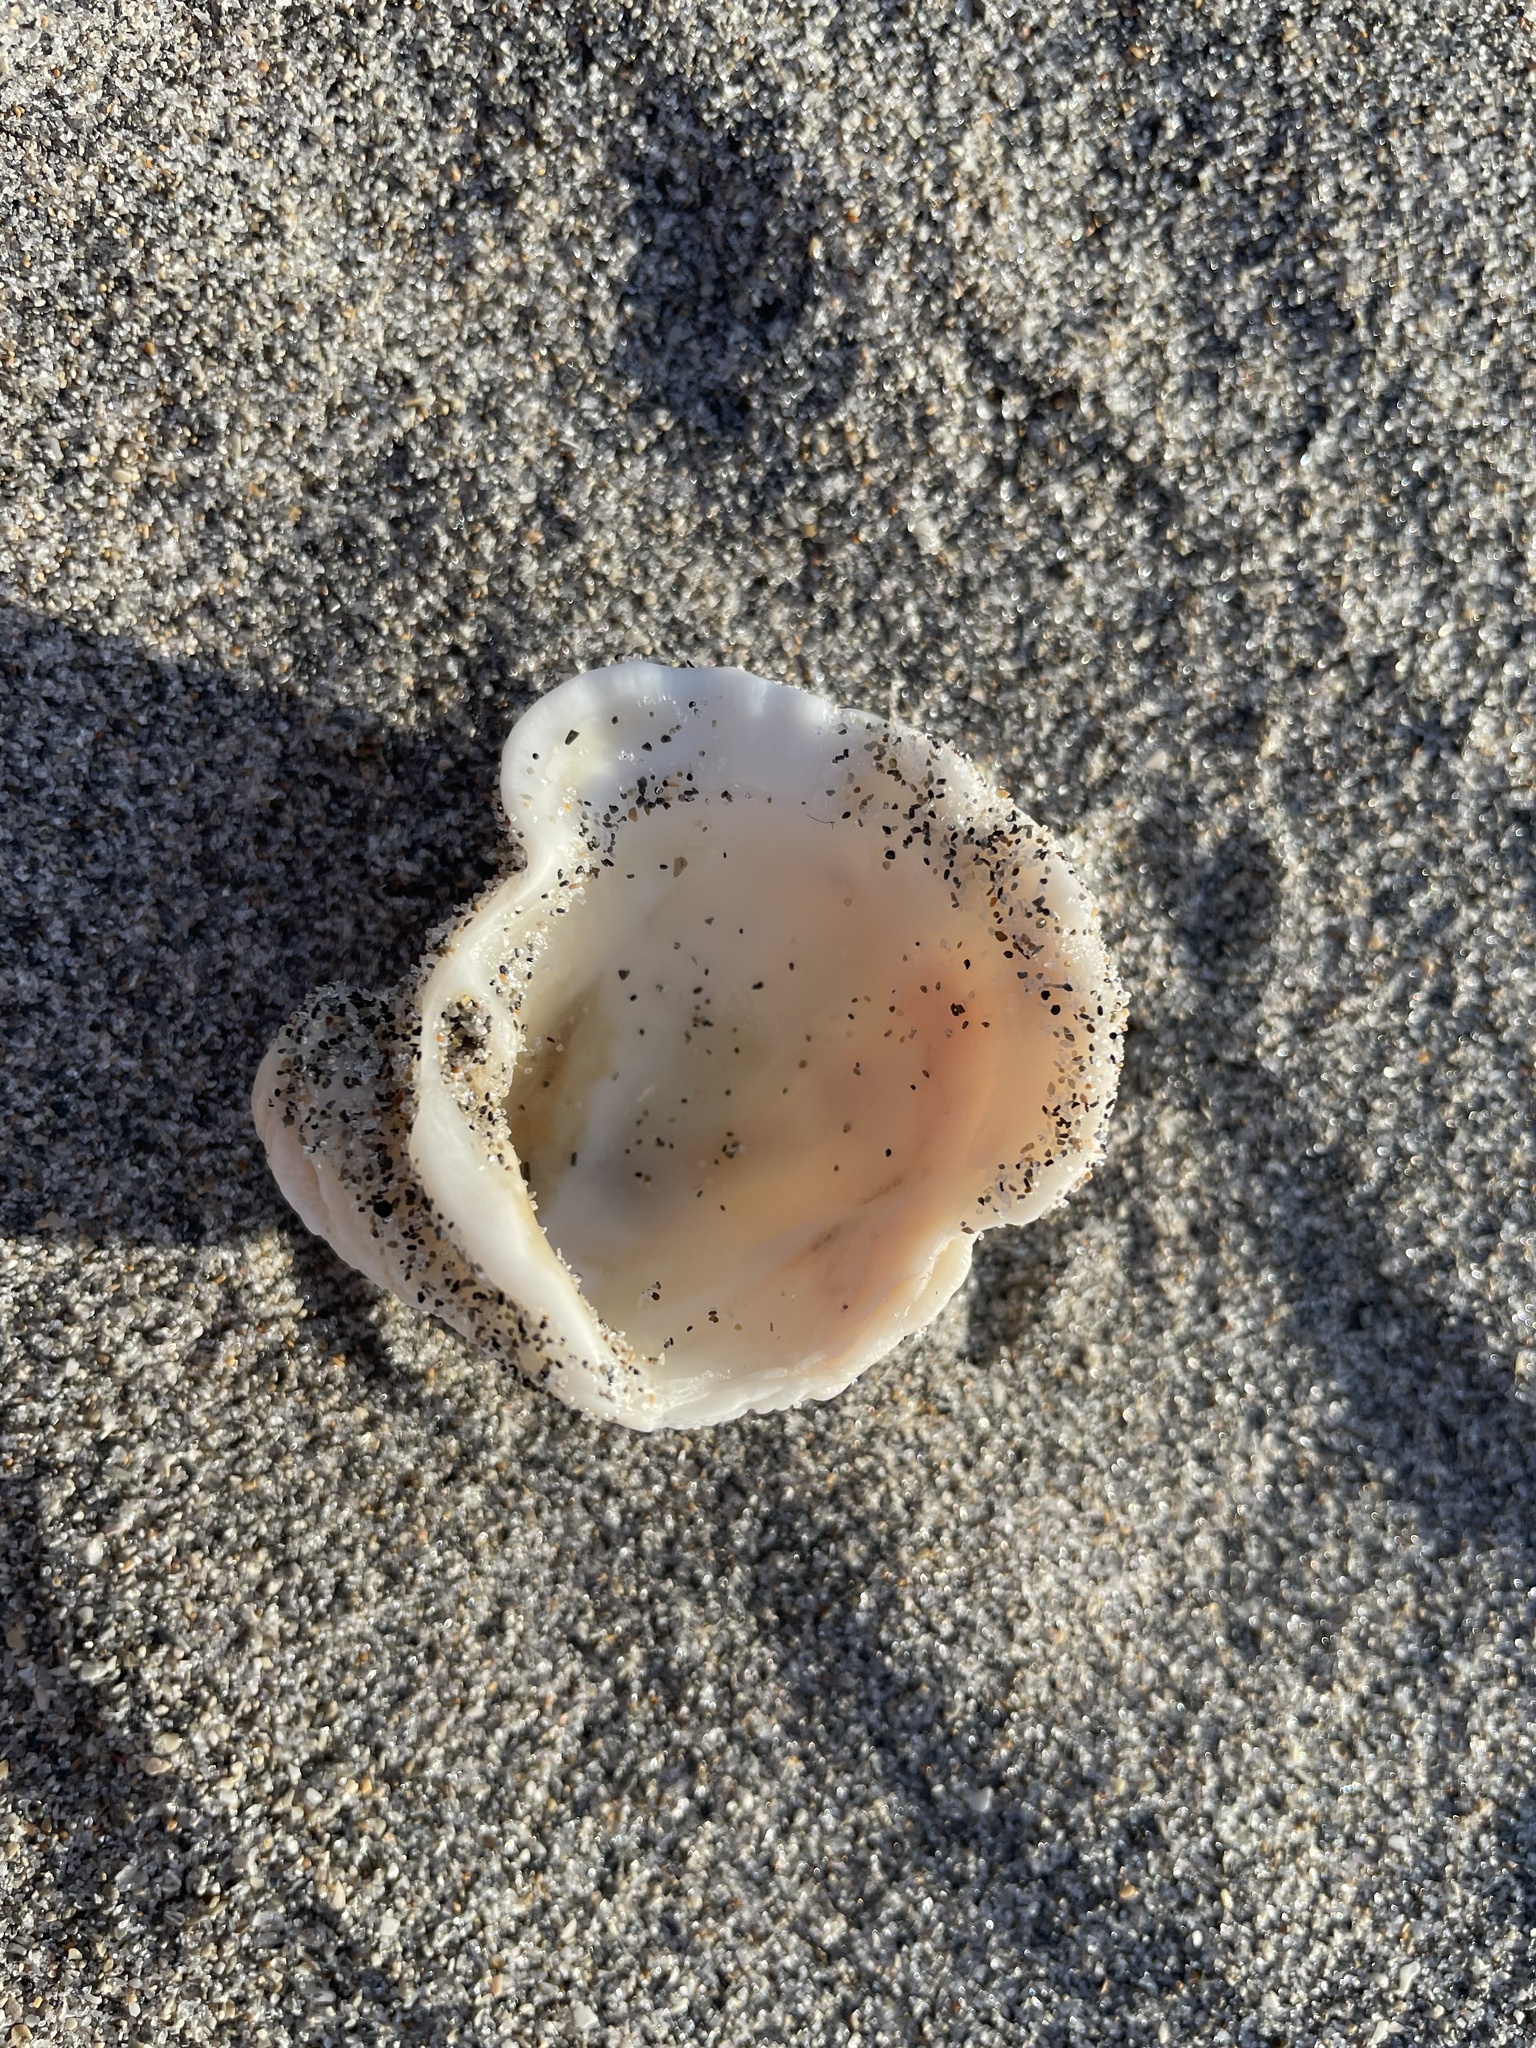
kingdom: Animalia
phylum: Mollusca
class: Bivalvia
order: Venerida
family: Chamidae
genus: Arcinella
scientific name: Arcinella cornuta
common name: Florida spiny jewel box
